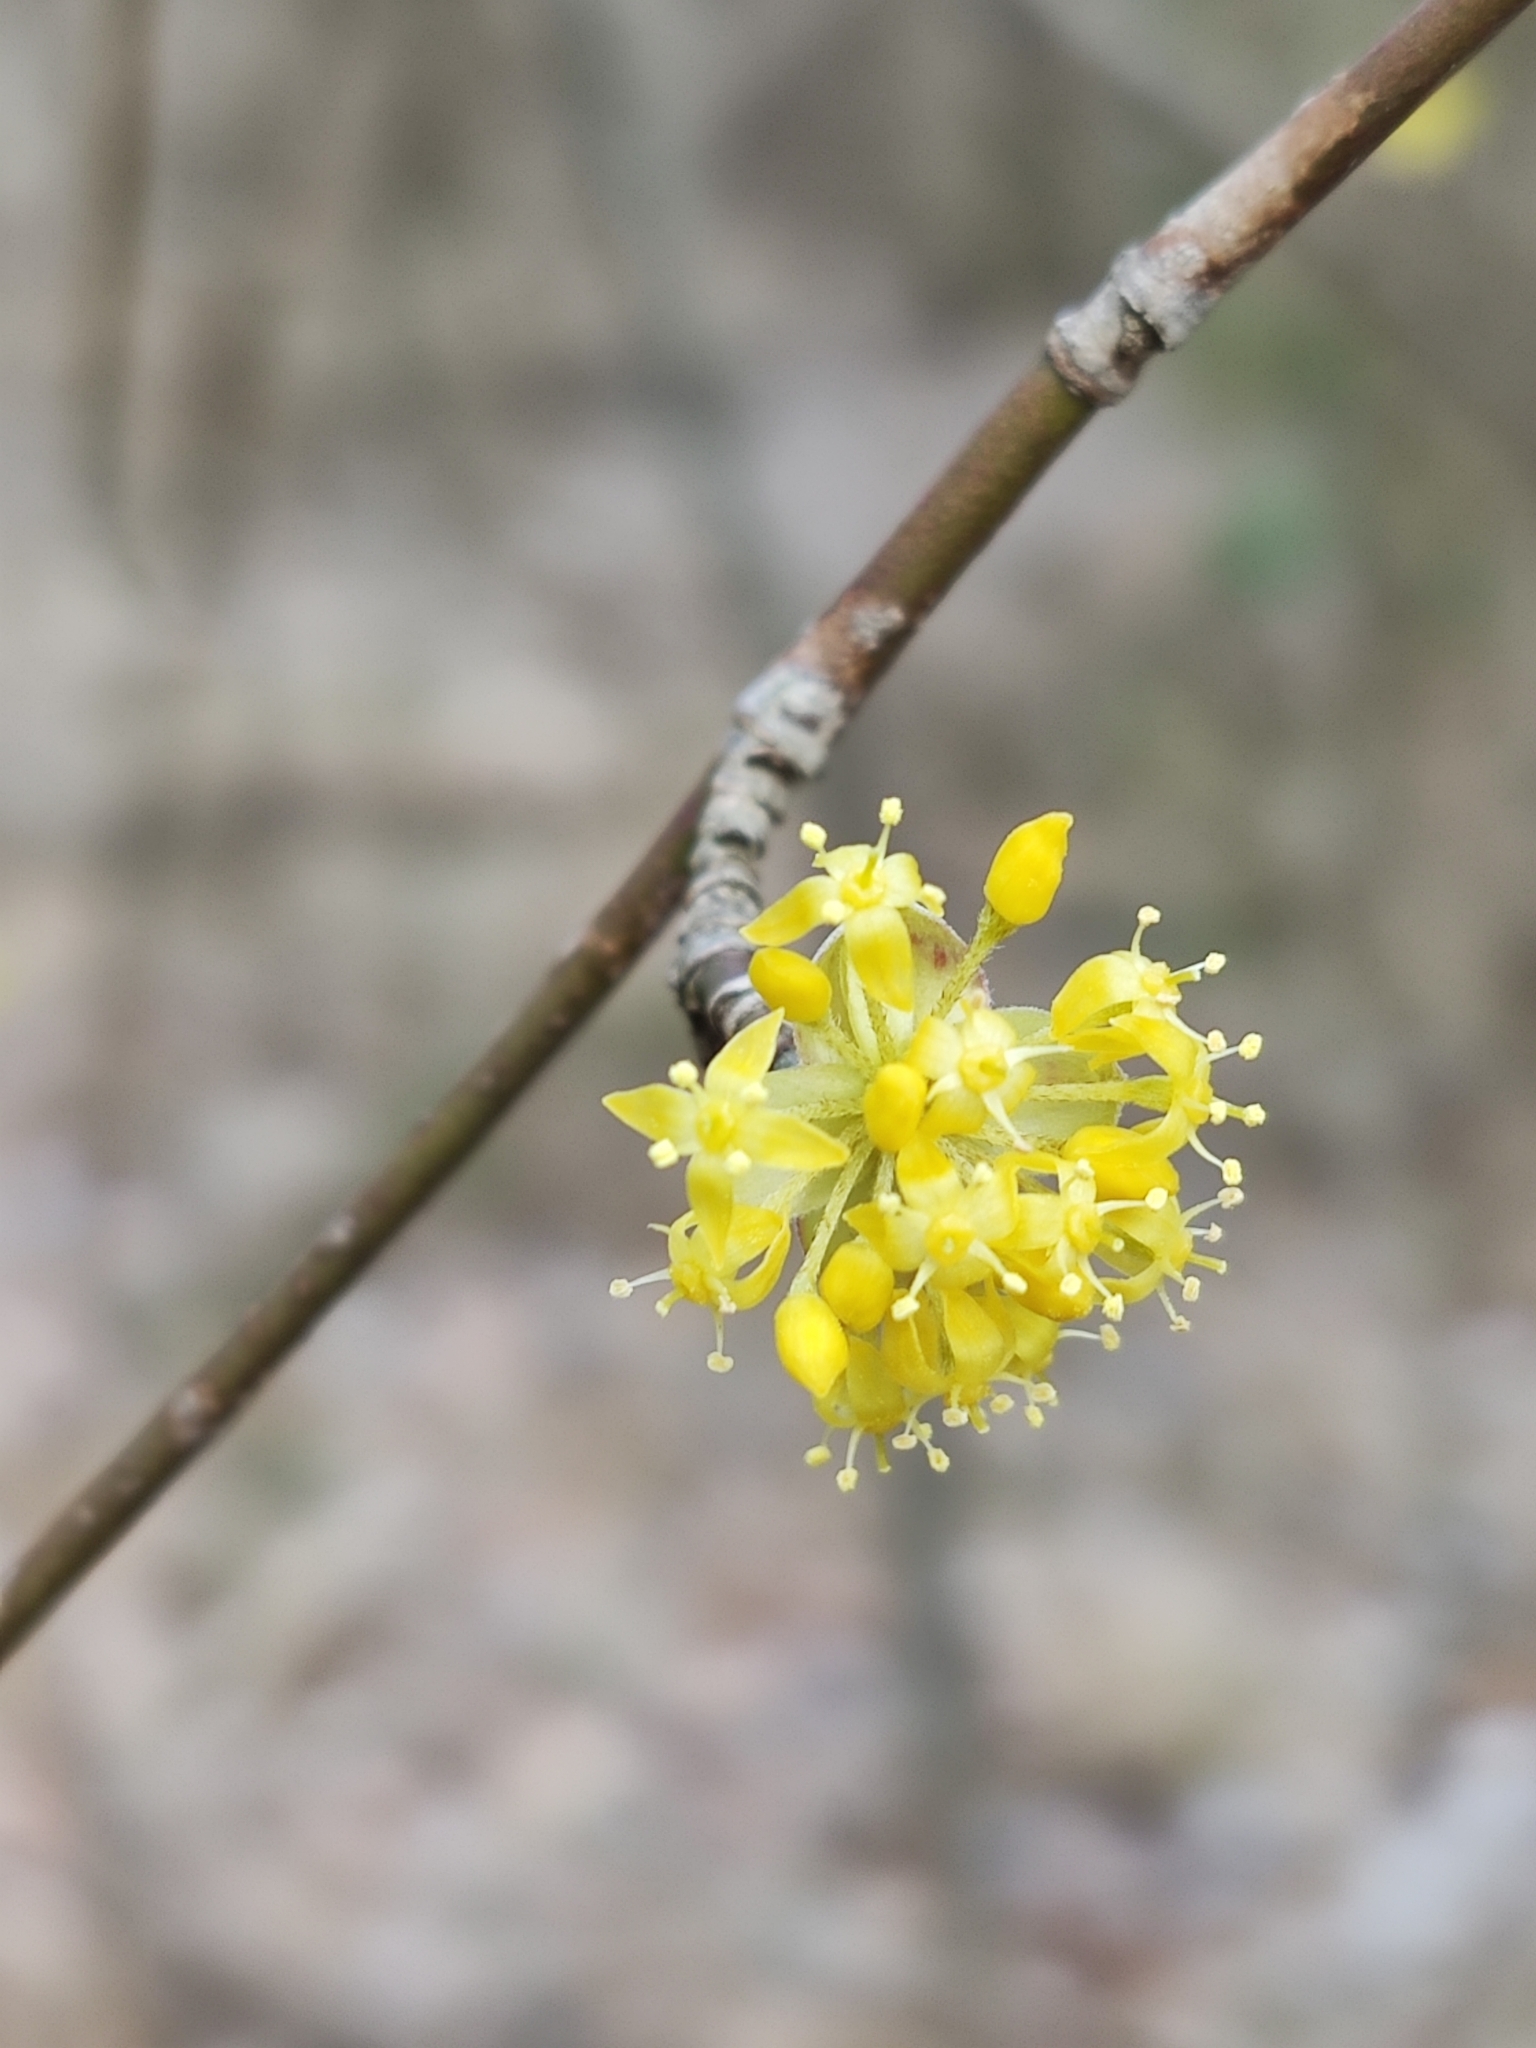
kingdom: Plantae
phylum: Tracheophyta
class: Magnoliopsida
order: Cornales
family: Cornaceae
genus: Cornus
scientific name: Cornus mas
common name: Cornelian-cherry
